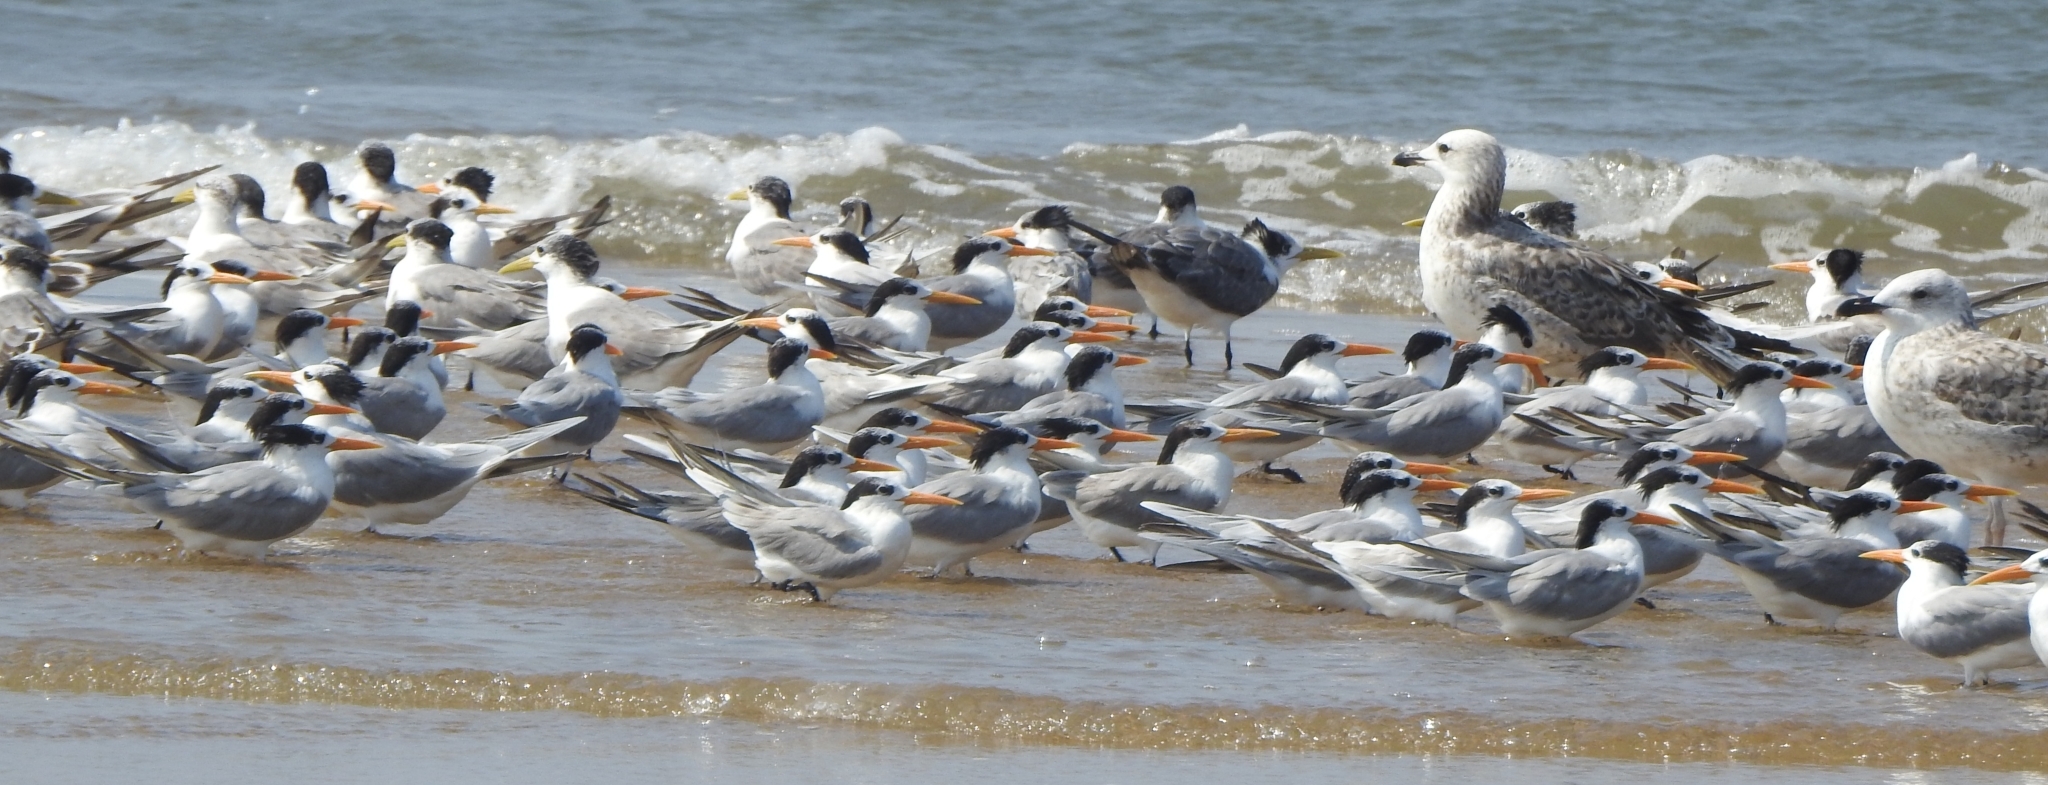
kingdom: Animalia
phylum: Chordata
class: Aves
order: Charadriiformes
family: Laridae
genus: Thalasseus
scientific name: Thalasseus bergii
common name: Greater crested tern
